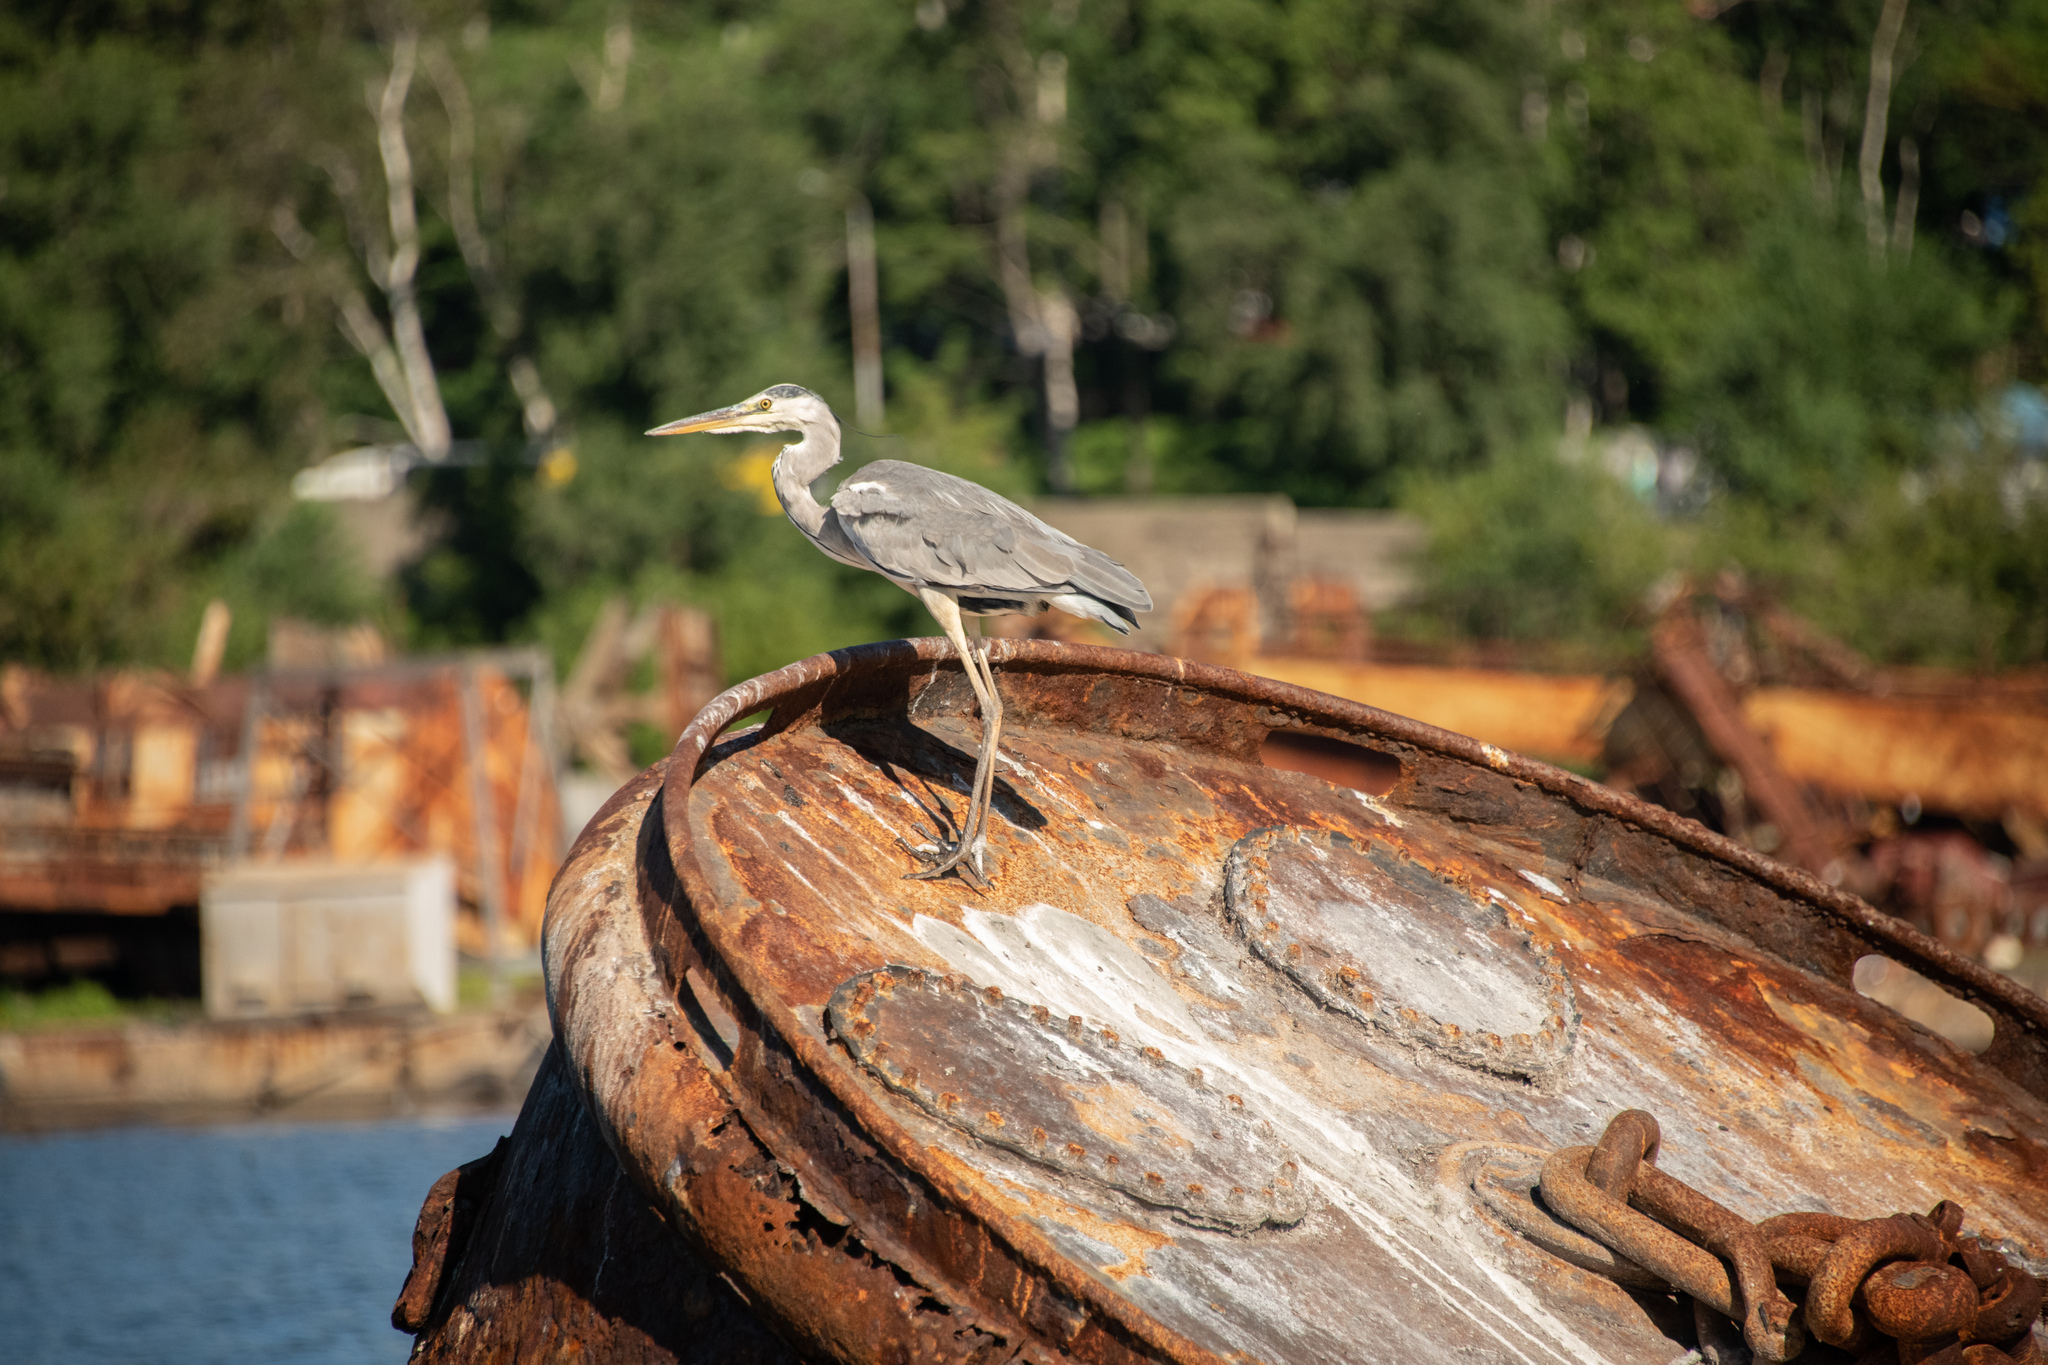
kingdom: Animalia
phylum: Chordata
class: Aves
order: Pelecaniformes
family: Ardeidae
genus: Ardea
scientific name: Ardea cinerea
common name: Grey heron
